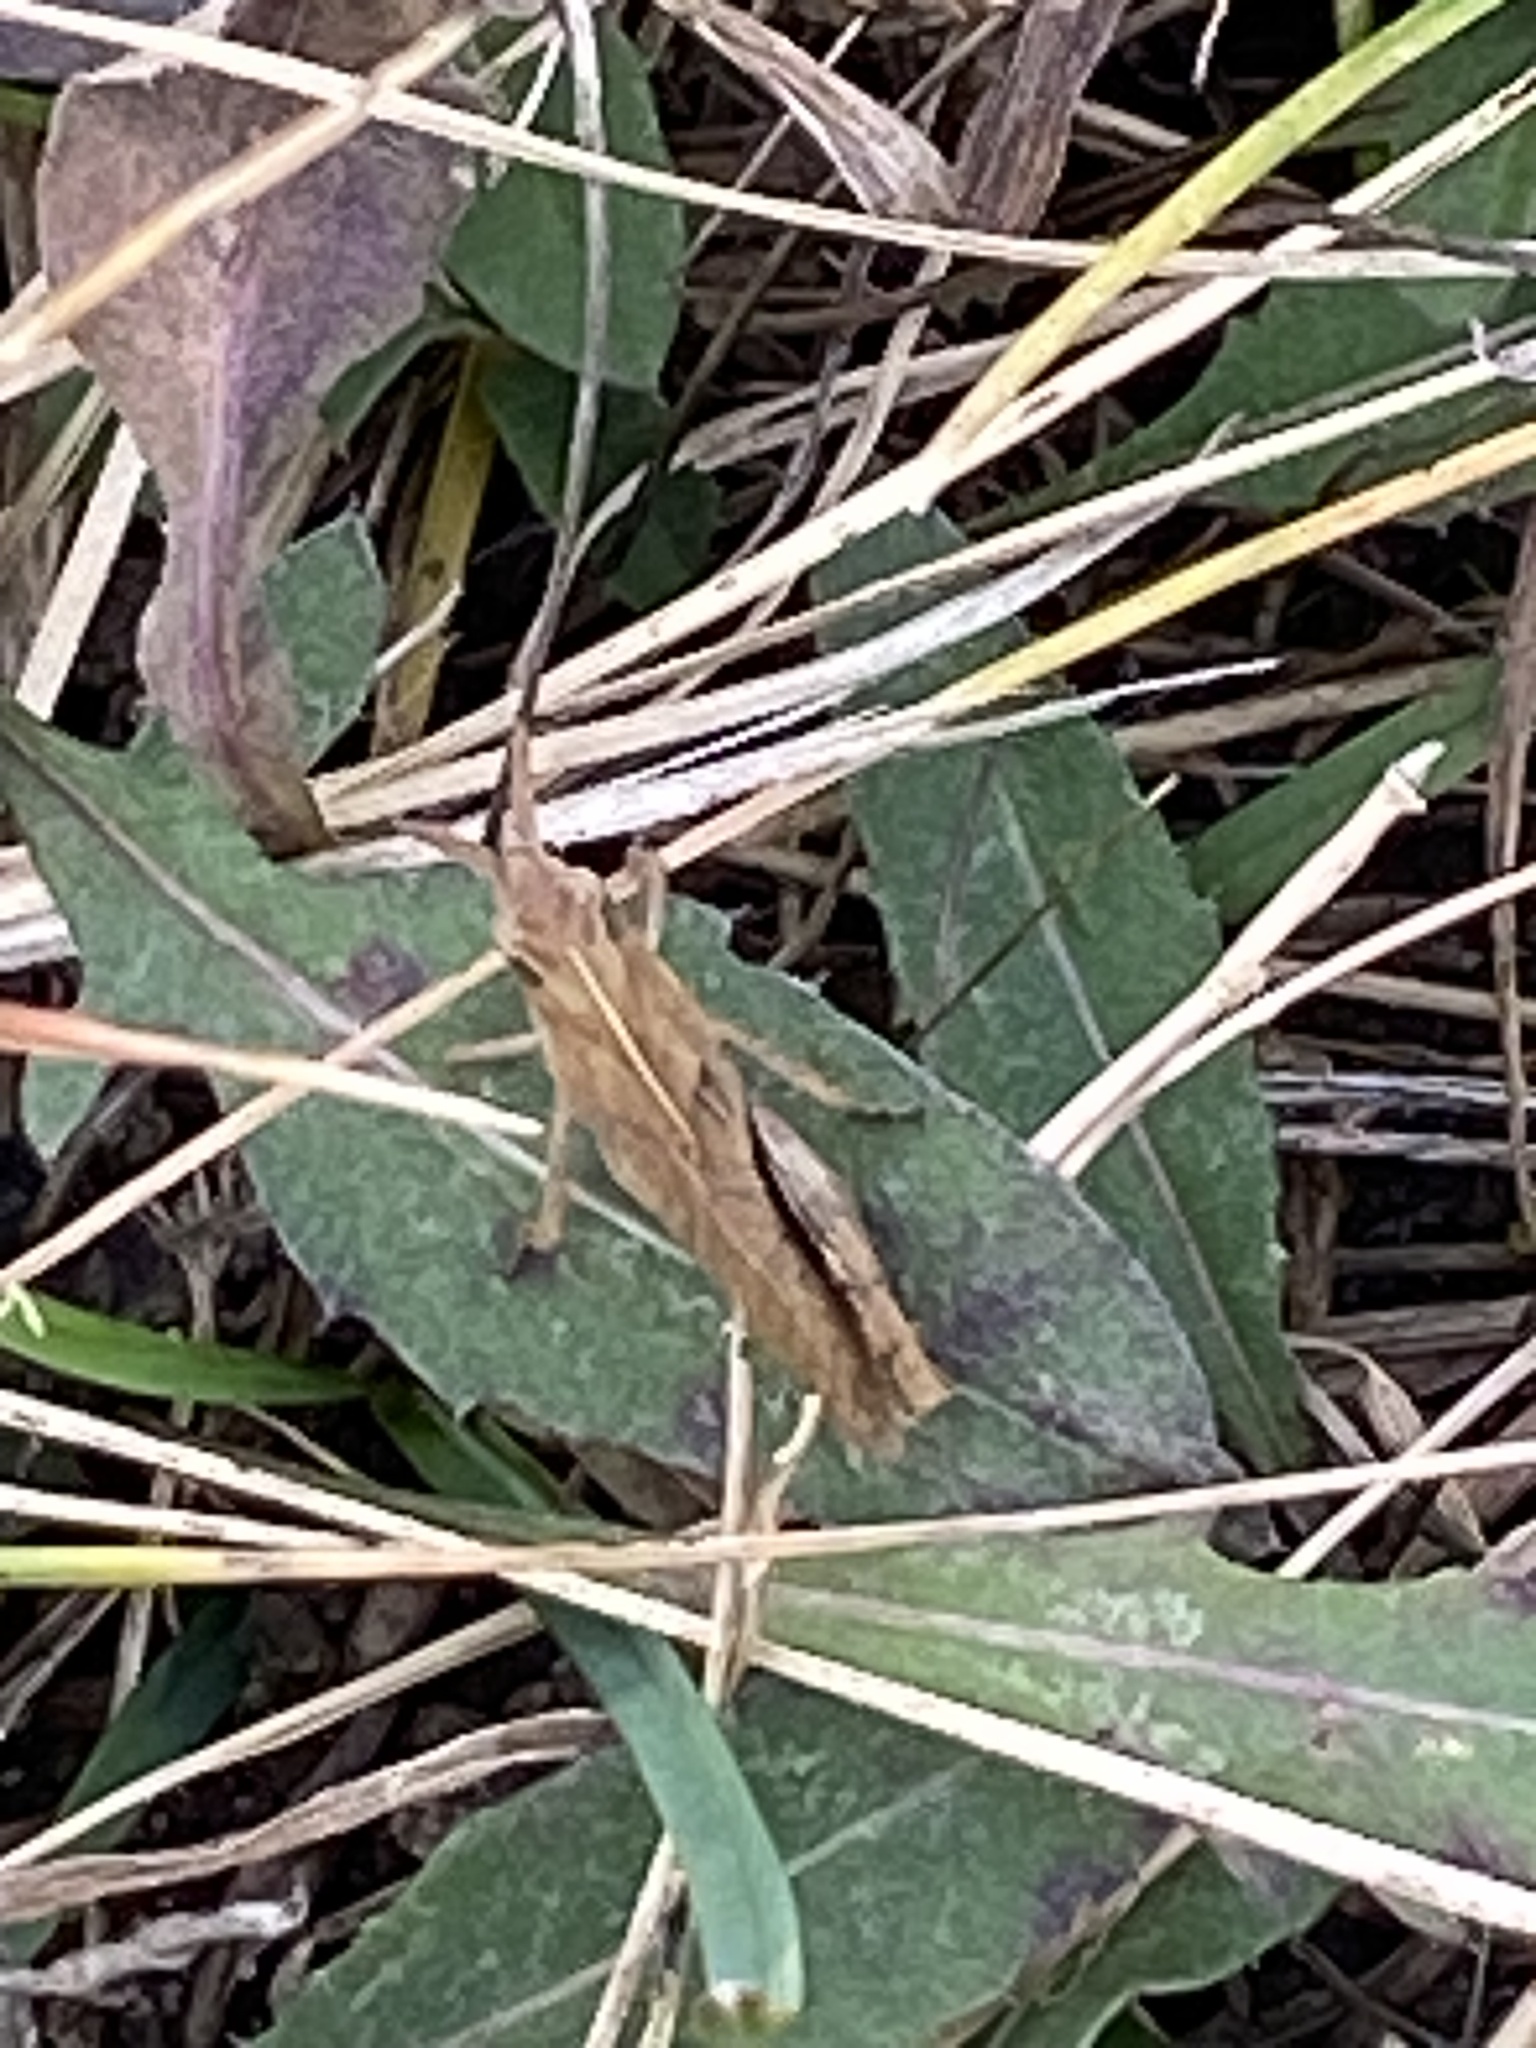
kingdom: Animalia
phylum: Arthropoda
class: Insecta
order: Orthoptera
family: Acrididae
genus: Chortophaga
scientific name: Chortophaga viridifasciata
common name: Green-striped grasshopper
